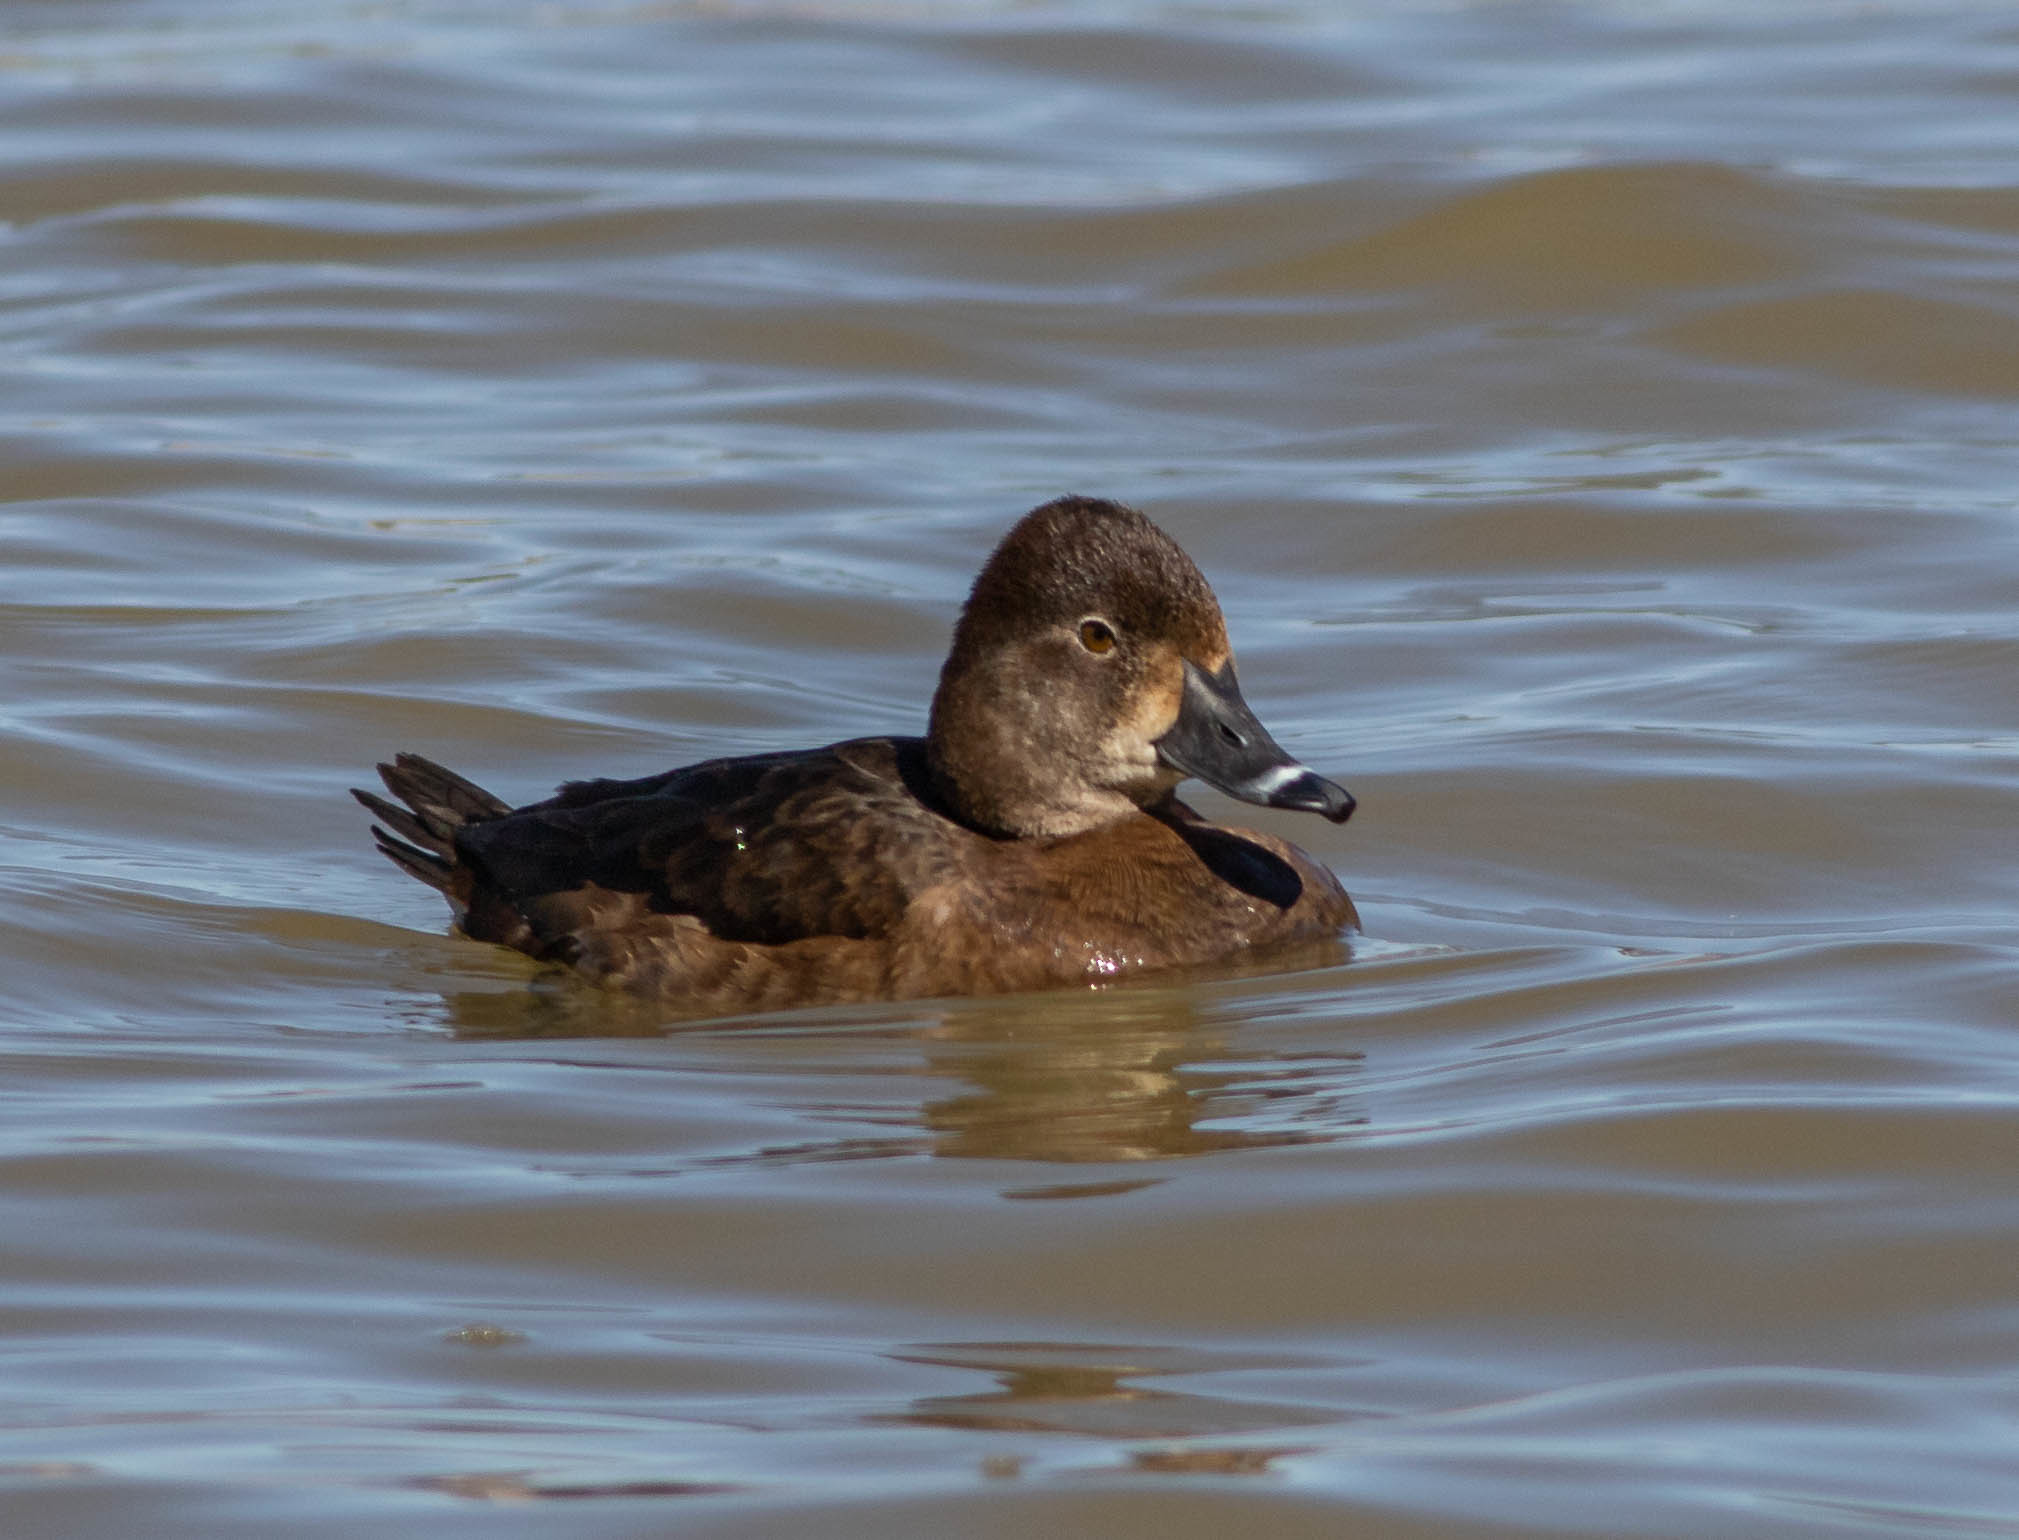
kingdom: Animalia
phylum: Chordata
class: Aves
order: Anseriformes
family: Anatidae
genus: Aythya
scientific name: Aythya collaris
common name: Ring-necked duck
